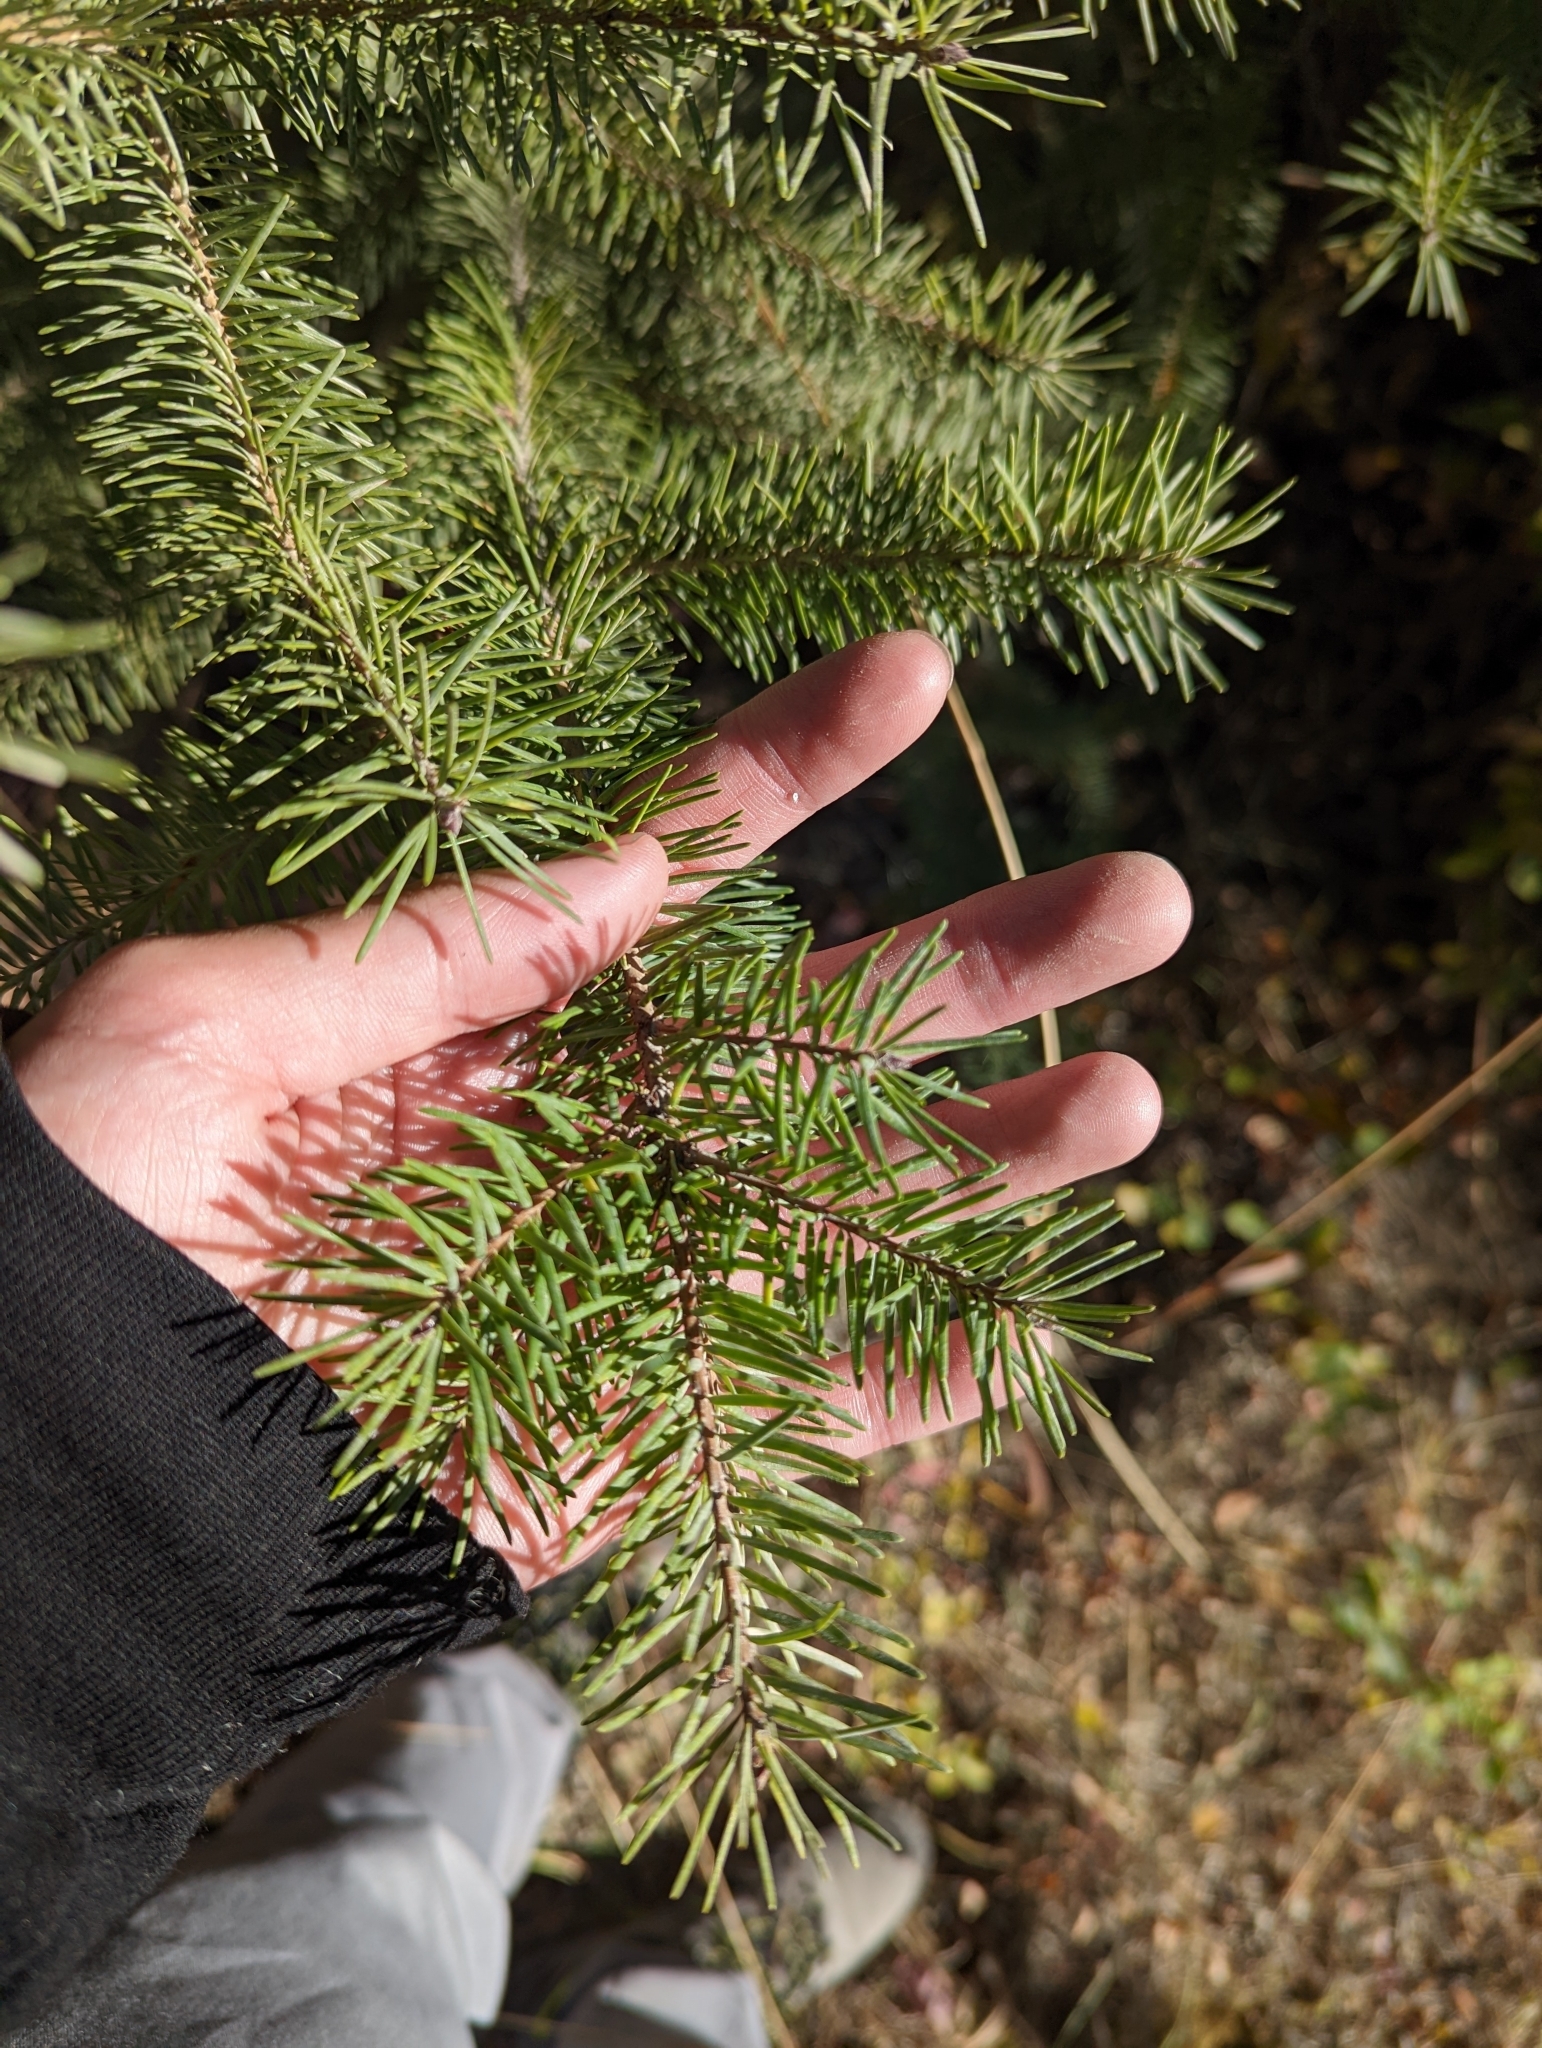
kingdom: Plantae
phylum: Tracheophyta
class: Pinopsida
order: Pinales
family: Pinaceae
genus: Pseudotsuga
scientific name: Pseudotsuga menziesii
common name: Douglas fir
